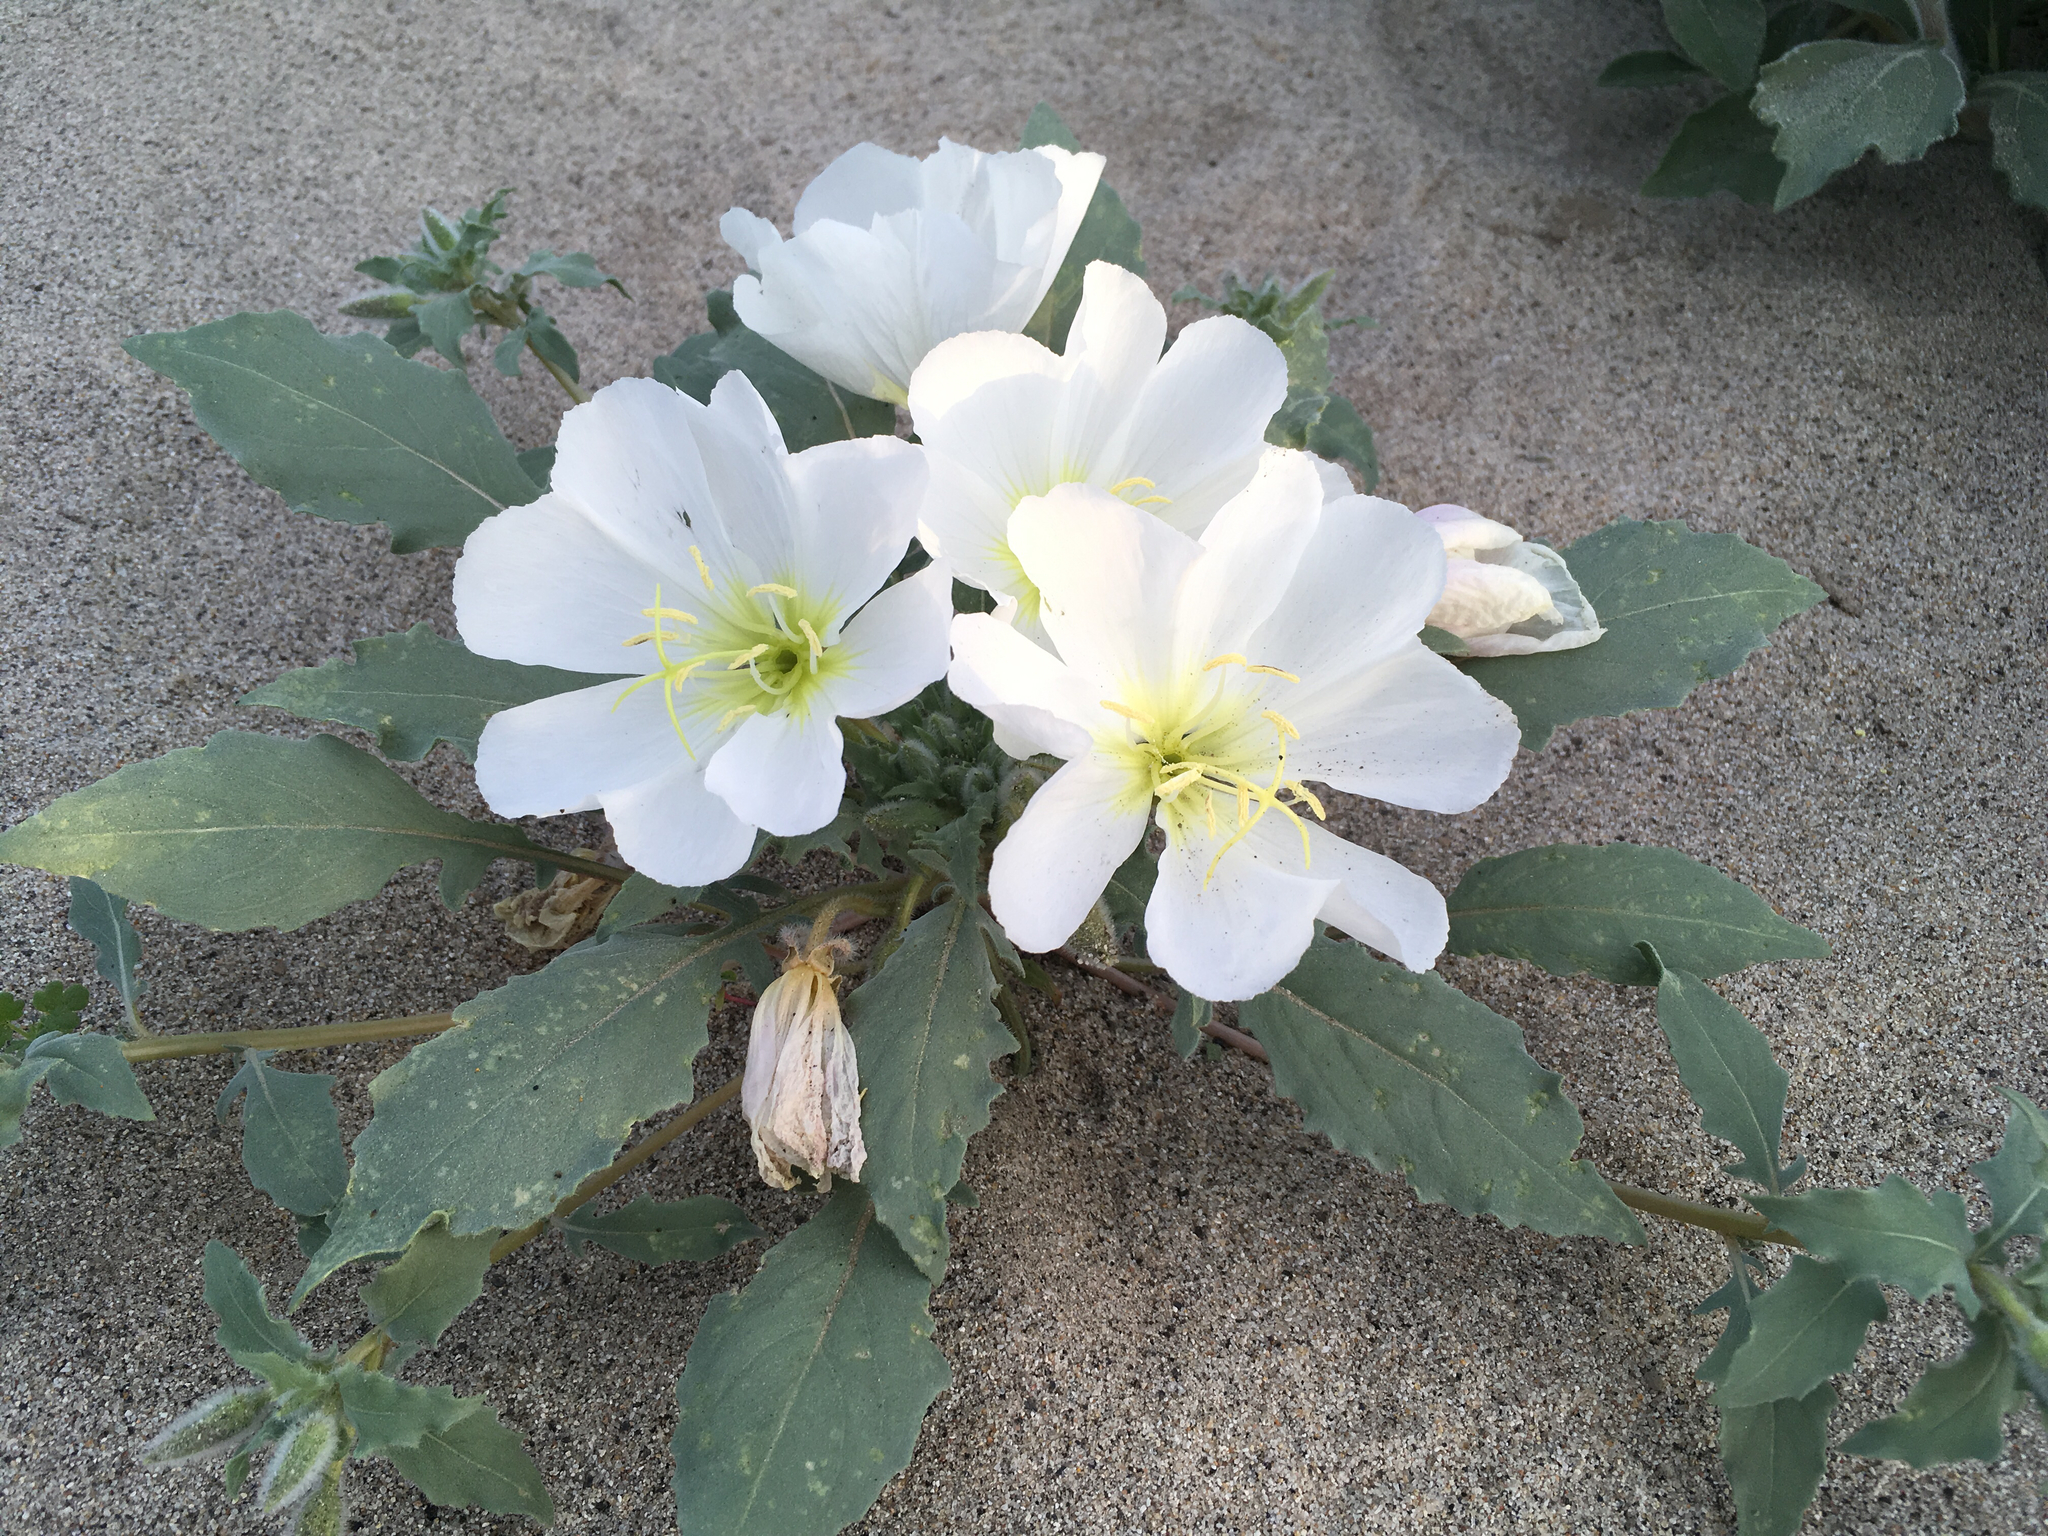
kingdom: Plantae
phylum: Tracheophyta
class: Magnoliopsida
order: Myrtales
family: Onagraceae
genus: Oenothera
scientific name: Oenothera deltoides
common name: Basket evening-primrose
